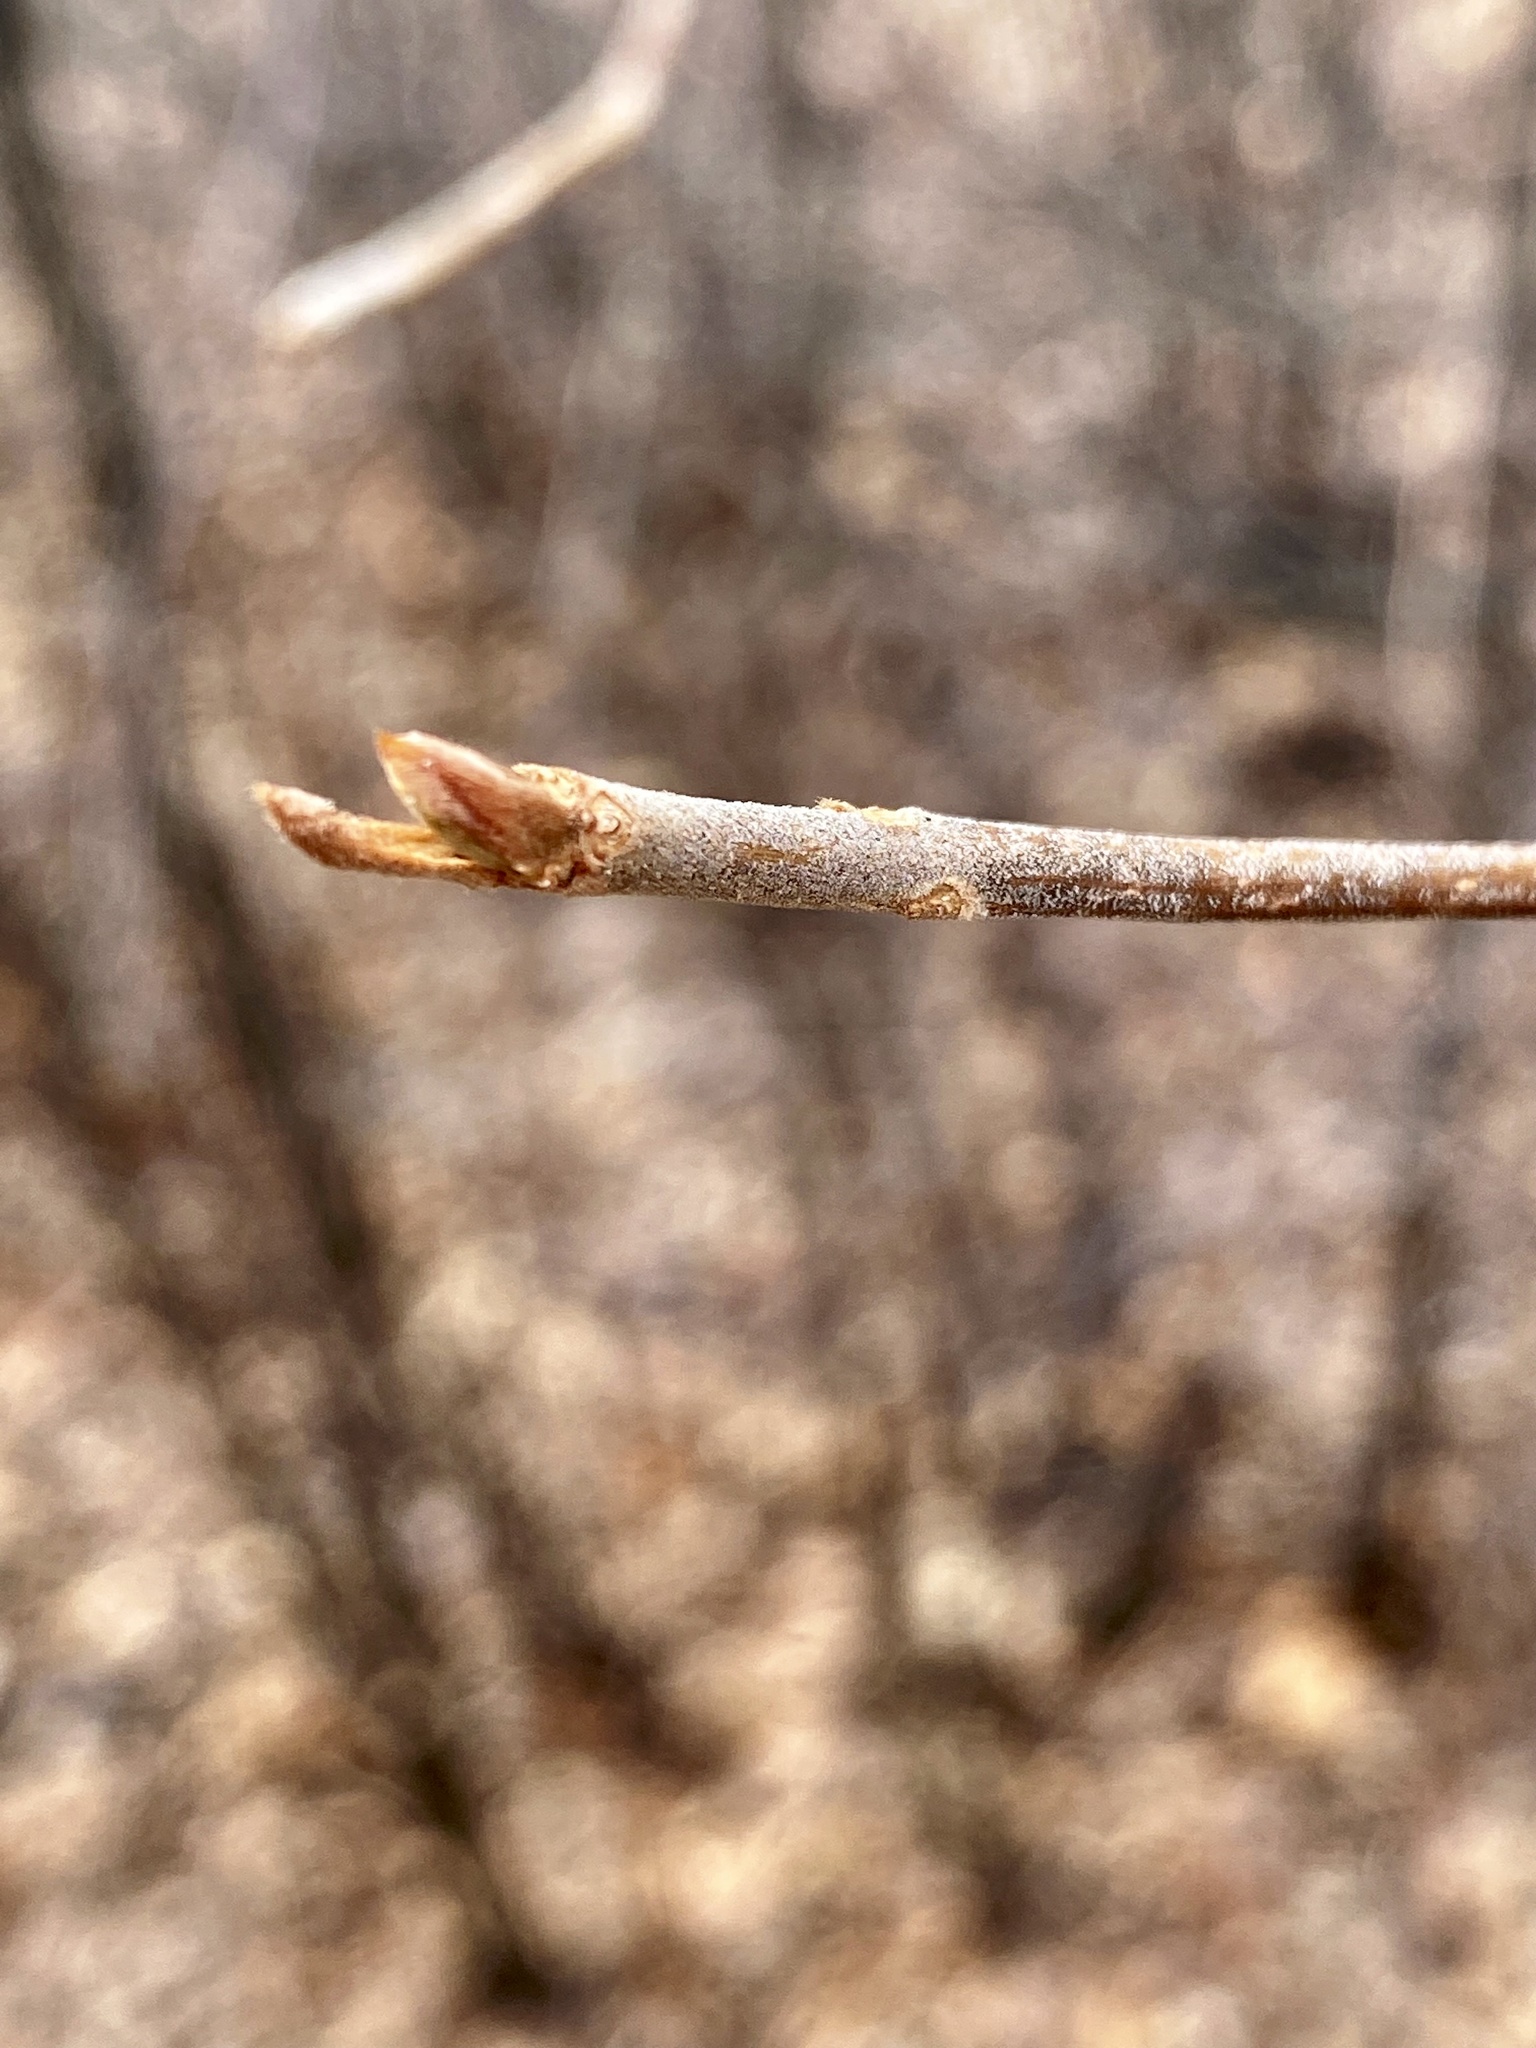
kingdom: Plantae
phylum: Tracheophyta
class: Magnoliopsida
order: Ericales
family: Clethraceae
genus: Clethra
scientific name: Clethra alnifolia
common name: Sweet pepperbush
